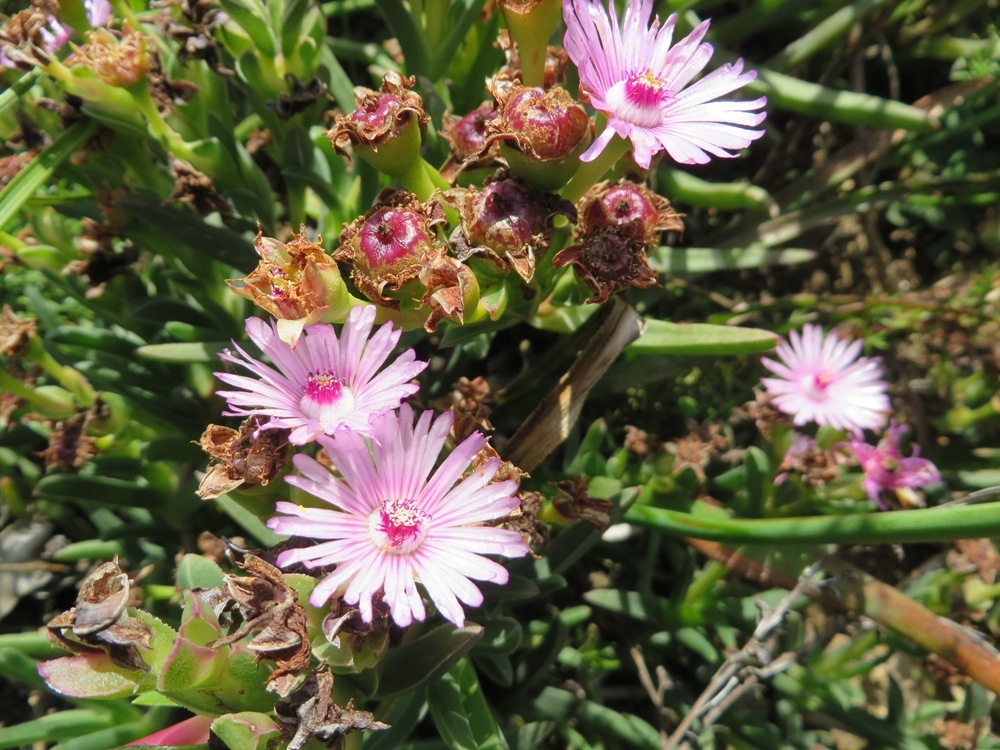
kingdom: Plantae
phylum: Tracheophyta
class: Magnoliopsida
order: Caryophyllales
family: Aizoaceae
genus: Ruschia
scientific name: Ruschia diversifolia
